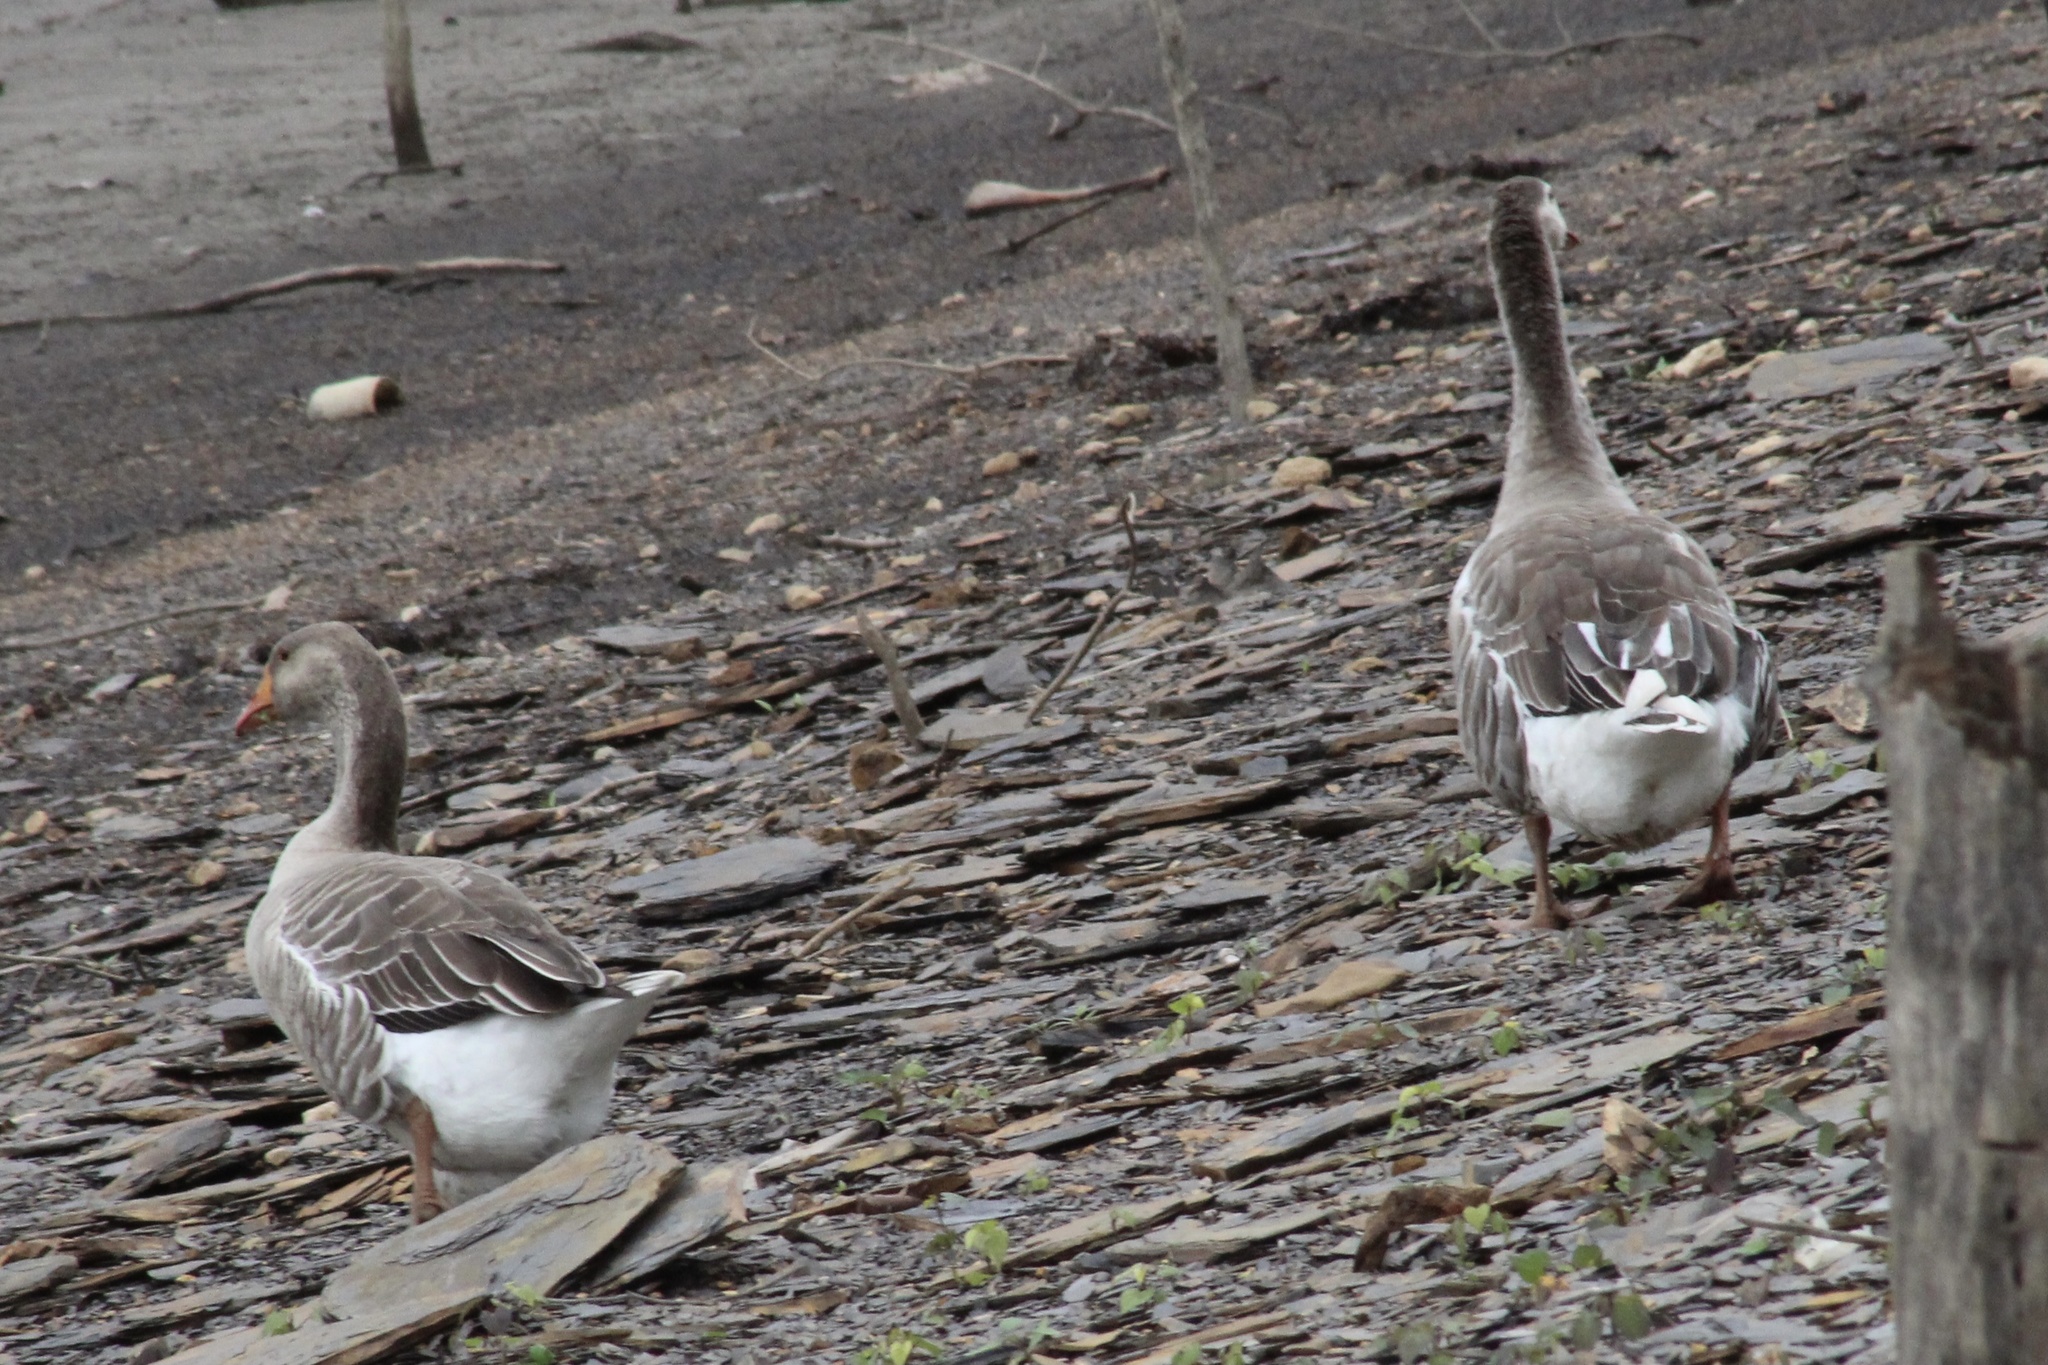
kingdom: Animalia
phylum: Chordata
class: Aves
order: Anseriformes
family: Anatidae
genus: Anser
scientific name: Anser
